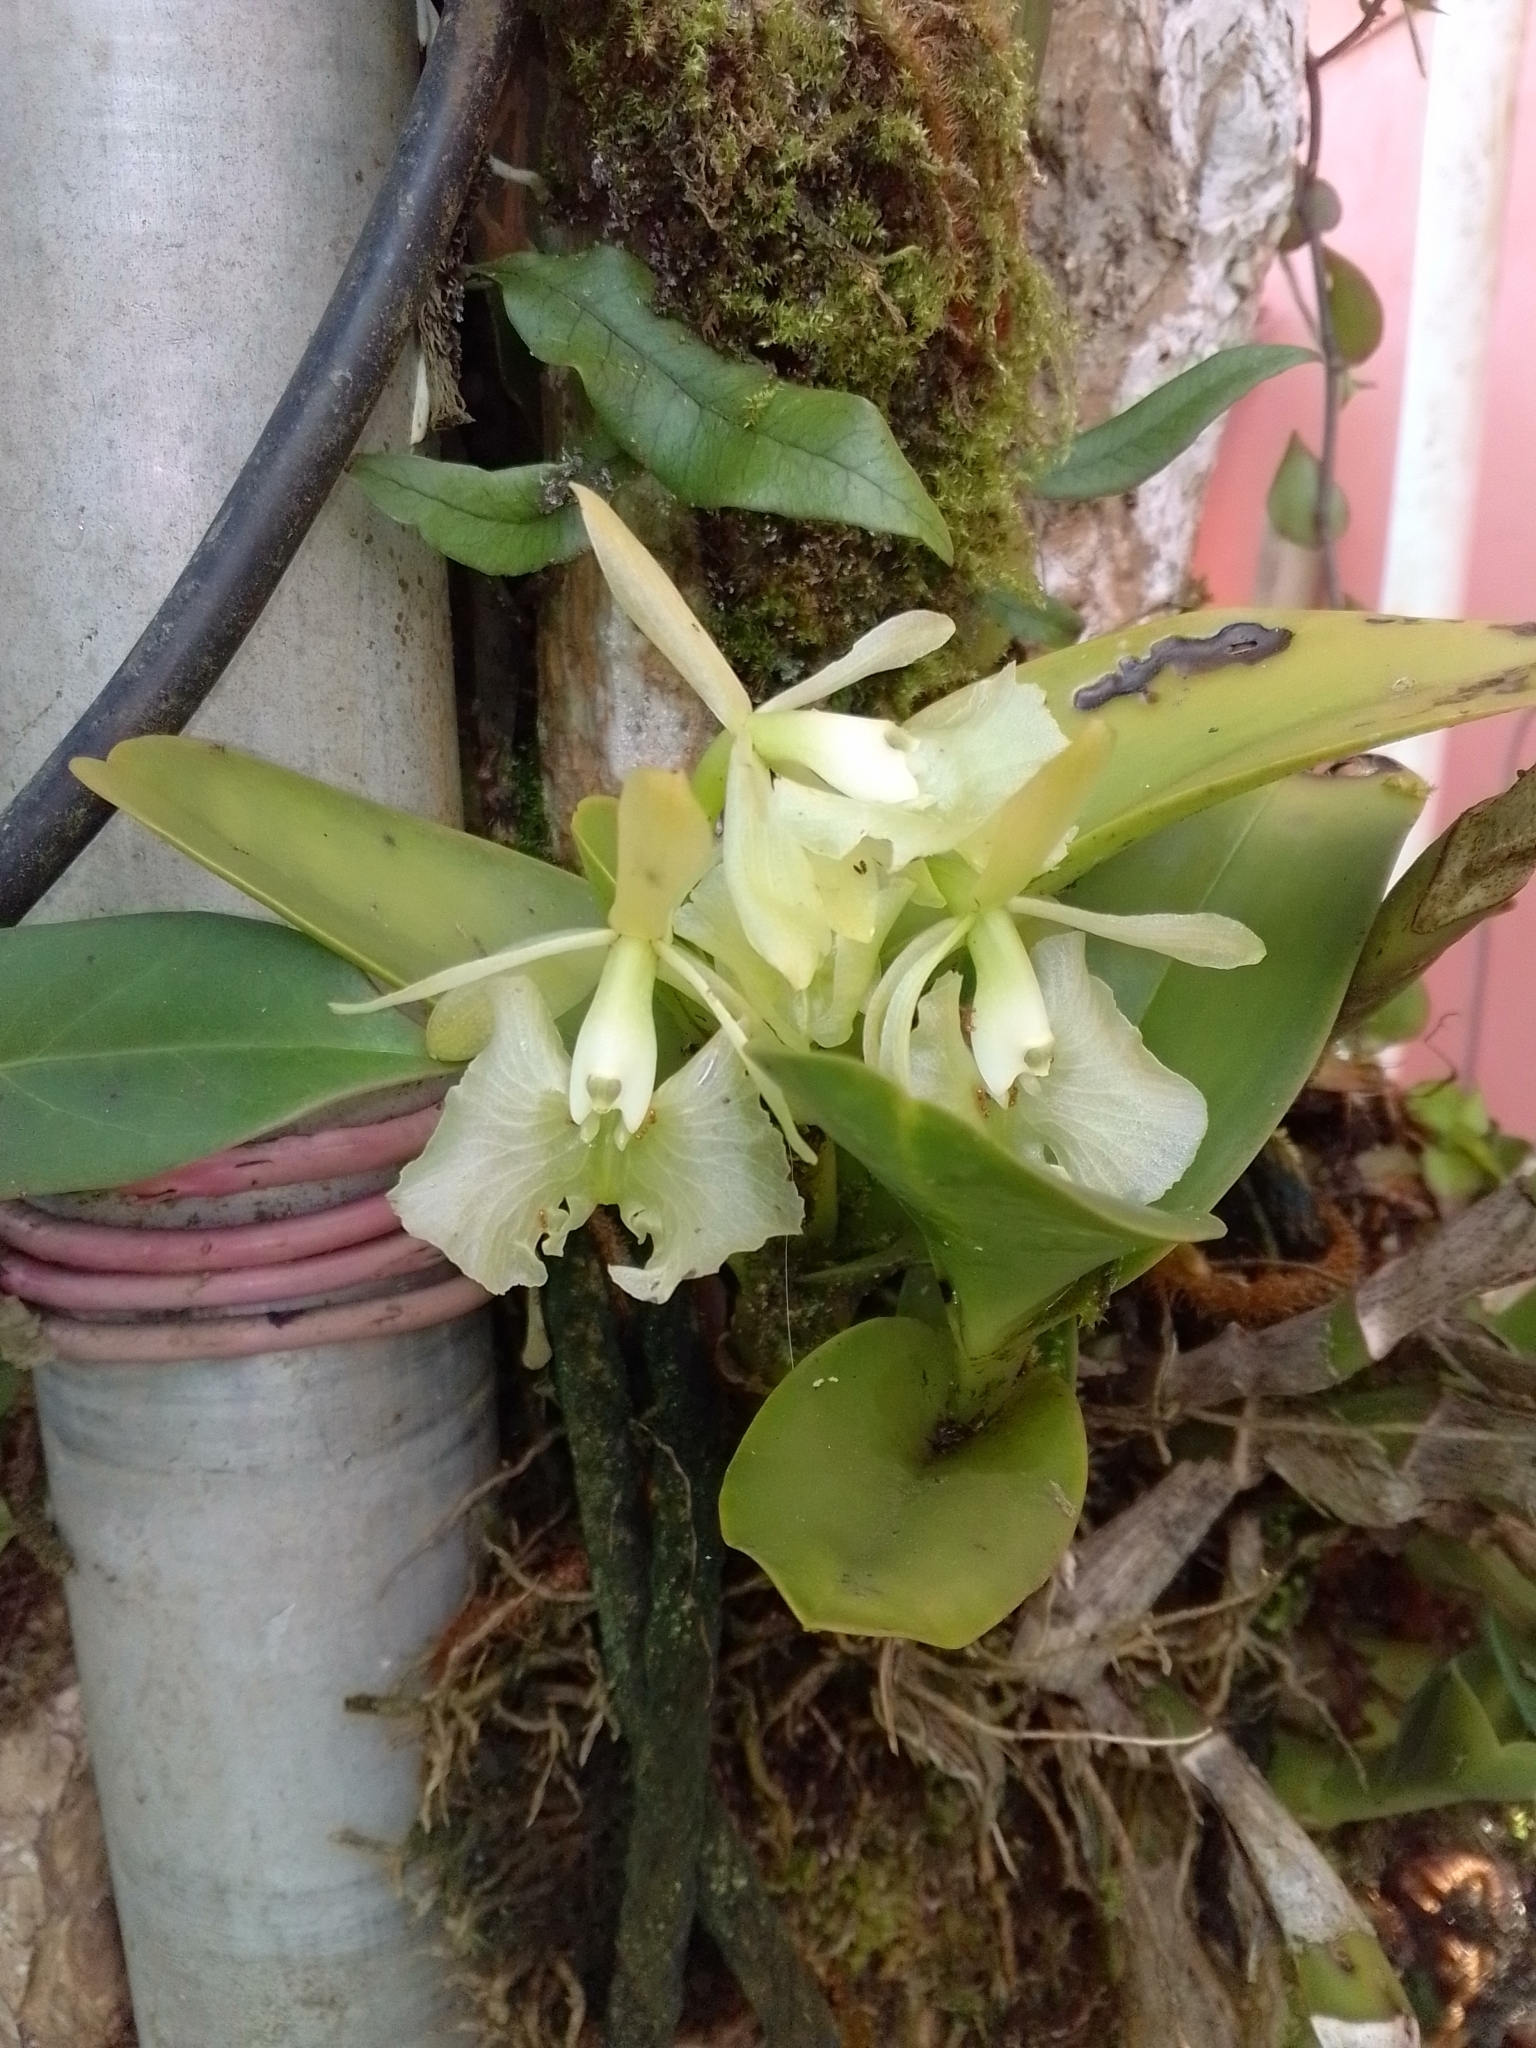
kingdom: Plantae
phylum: Tracheophyta
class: Liliopsida
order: Asparagales
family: Orchidaceae
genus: Epidendrum
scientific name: Epidendrum barbeyanum
